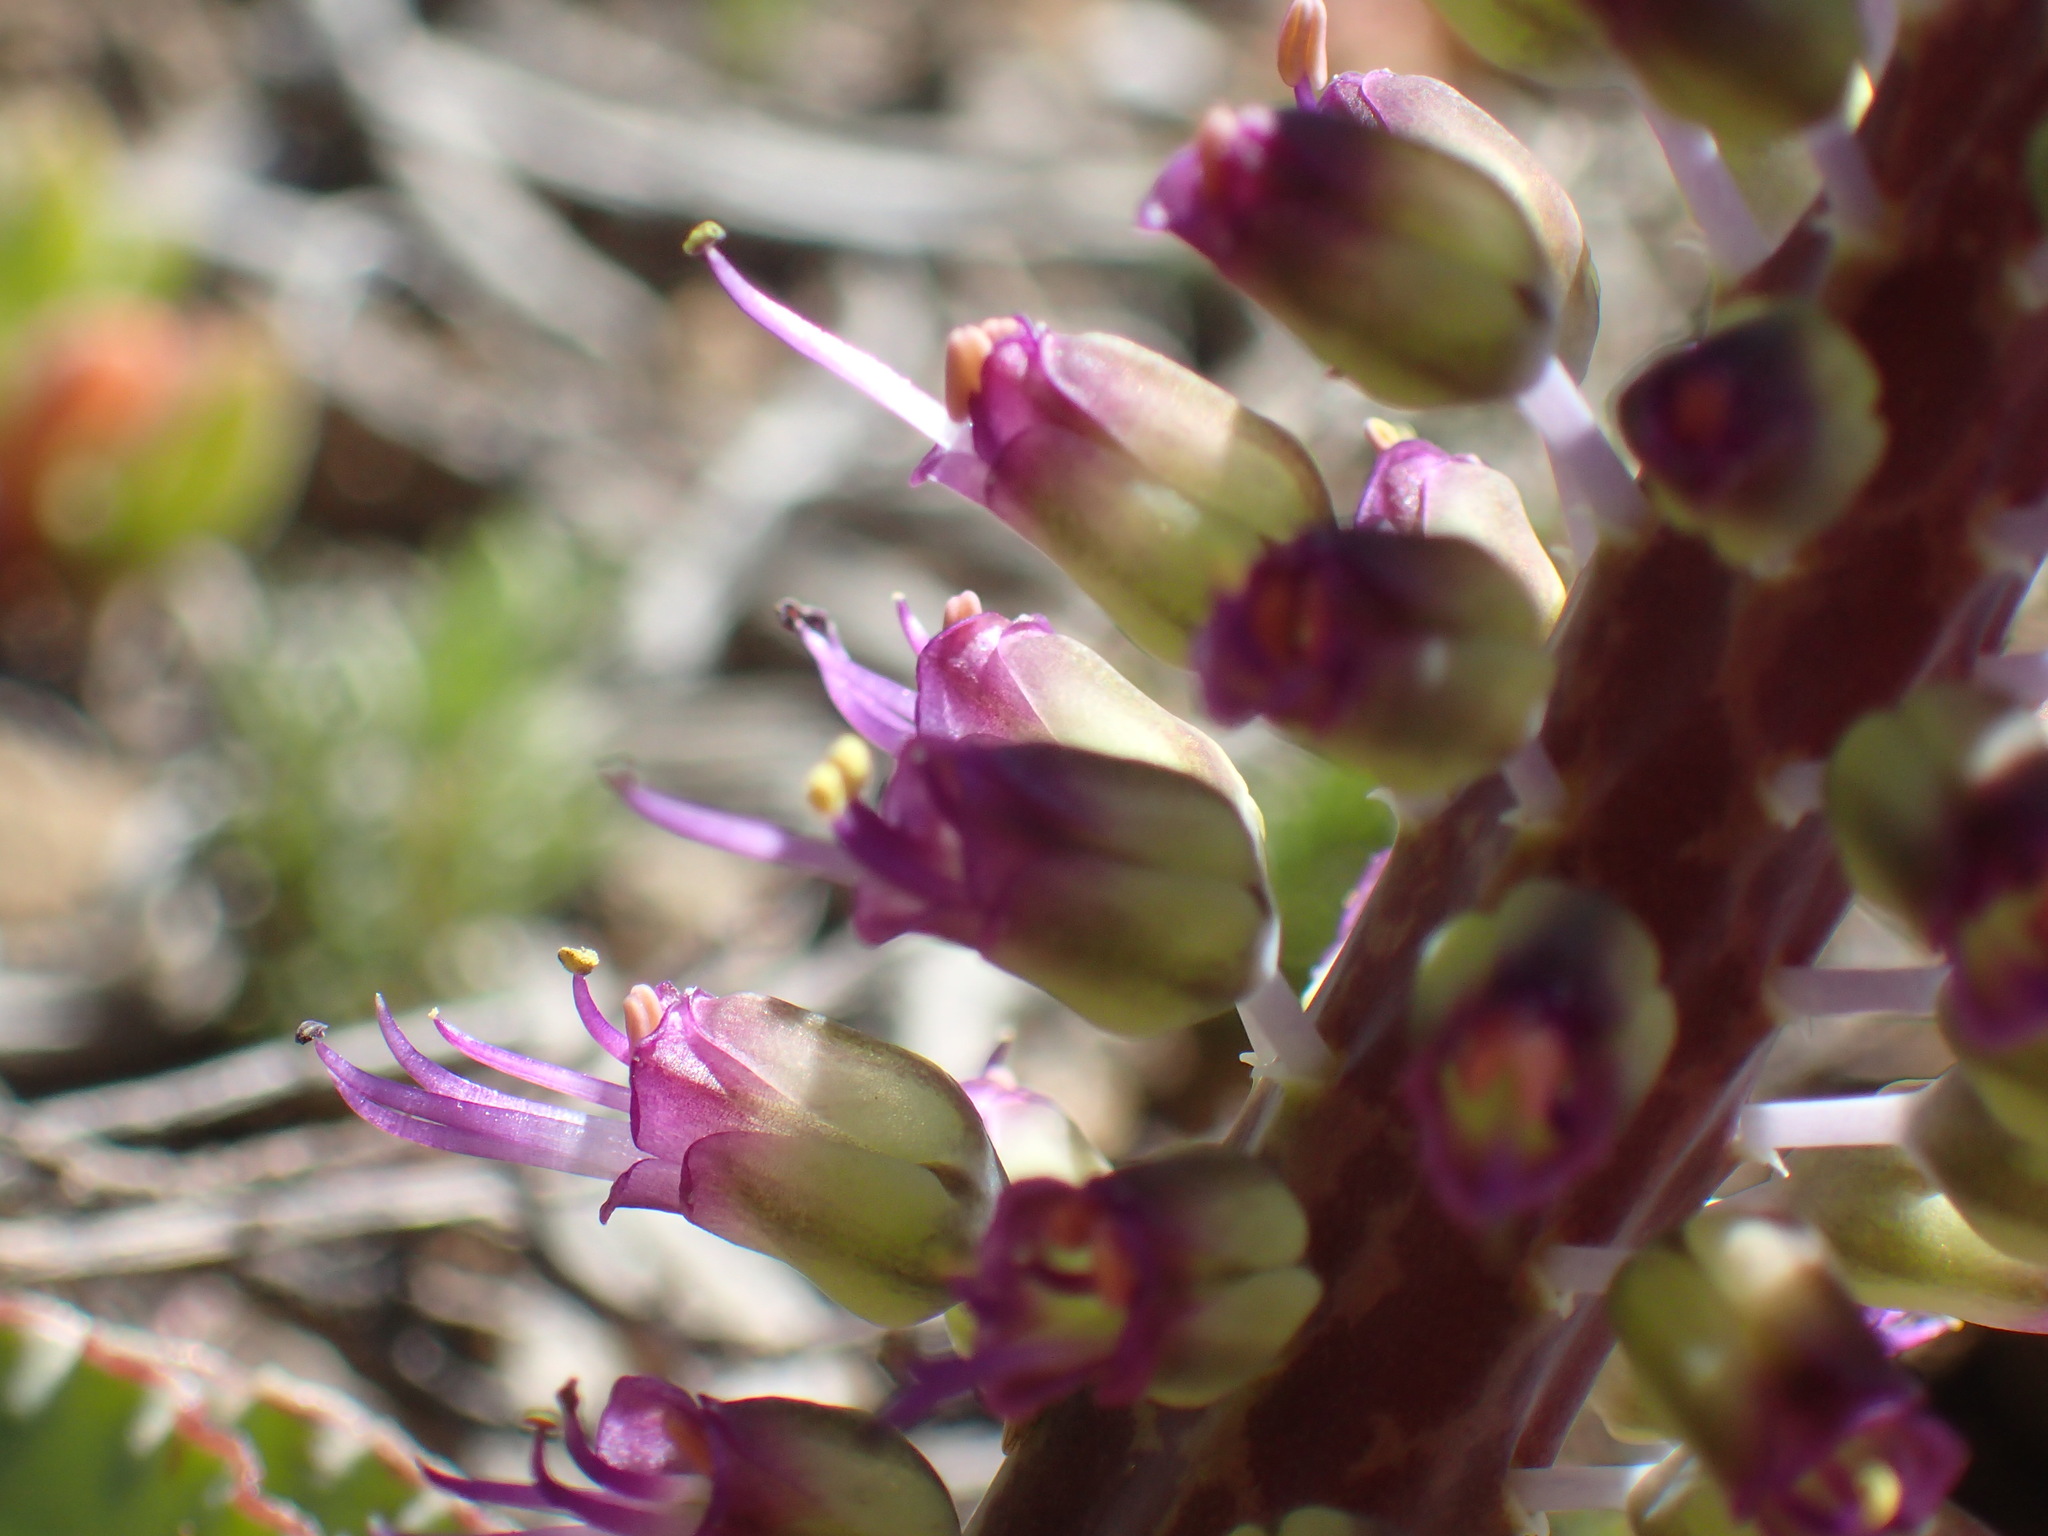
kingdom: Plantae
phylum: Tracheophyta
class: Liliopsida
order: Asparagales
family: Asparagaceae
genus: Lachenalia
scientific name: Lachenalia violacea
